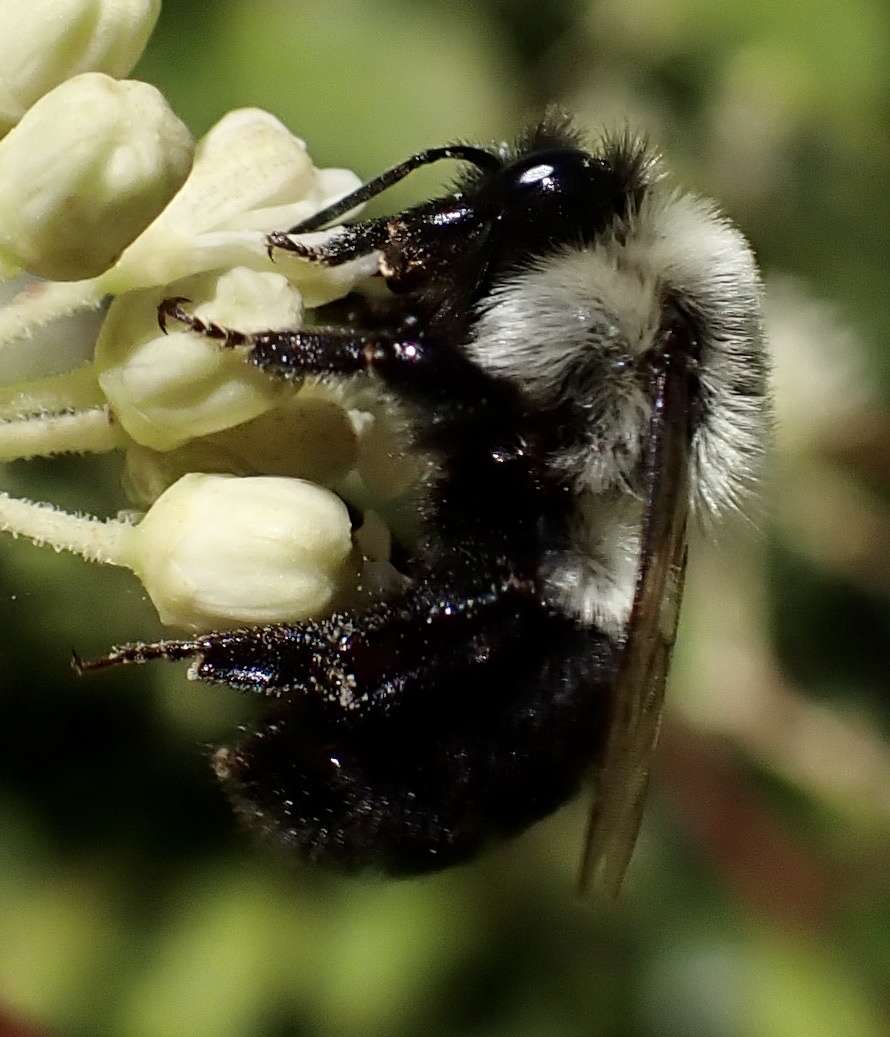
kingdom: Animalia
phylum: Arthropoda
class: Insecta
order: Hymenoptera
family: Apidae
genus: Bombus
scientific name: Bombus impatiens
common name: Common eastern bumble bee
